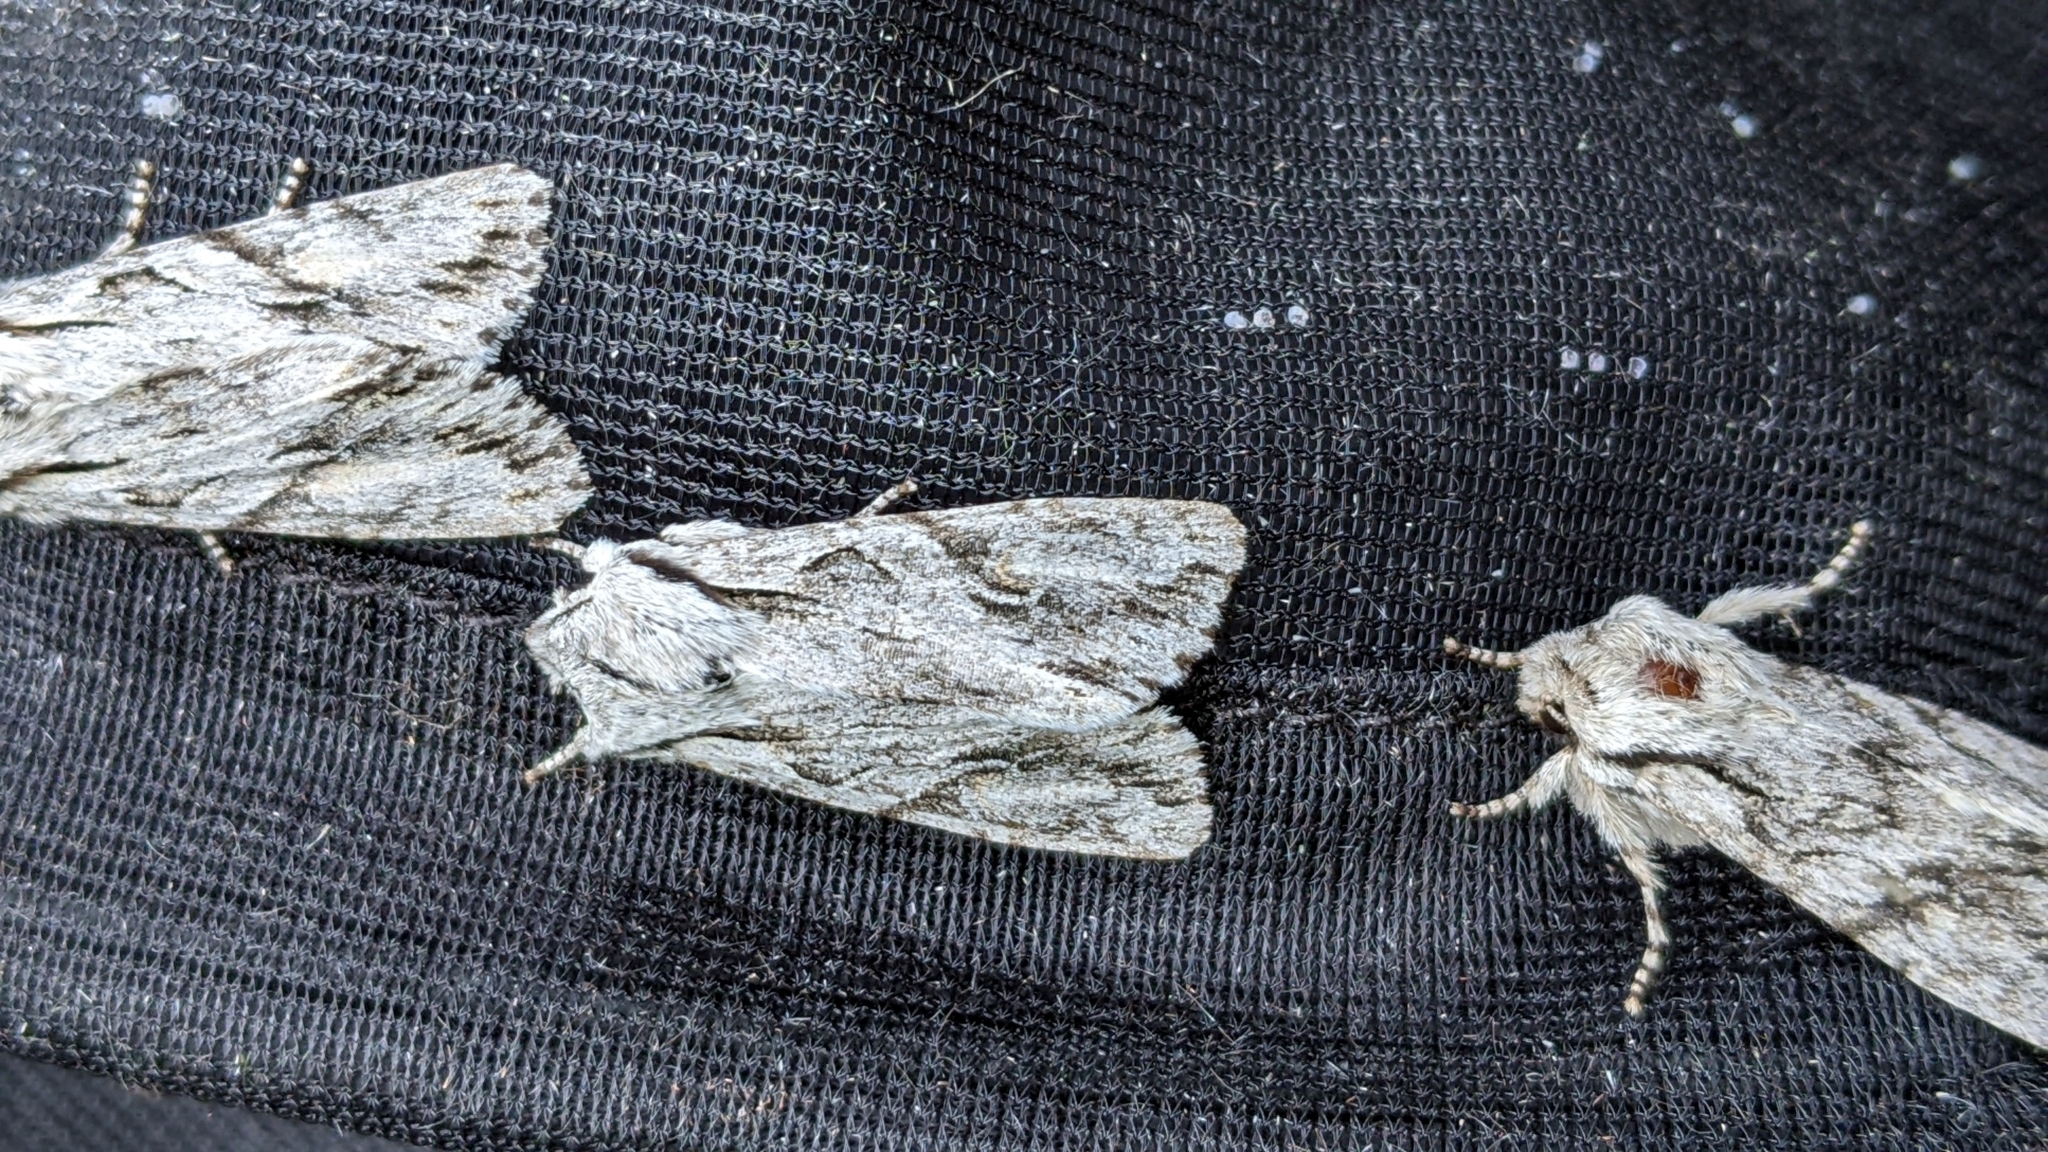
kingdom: Animalia
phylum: Arthropoda
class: Insecta
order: Lepidoptera
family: Noctuidae
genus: Egira
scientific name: Egira crucialis
